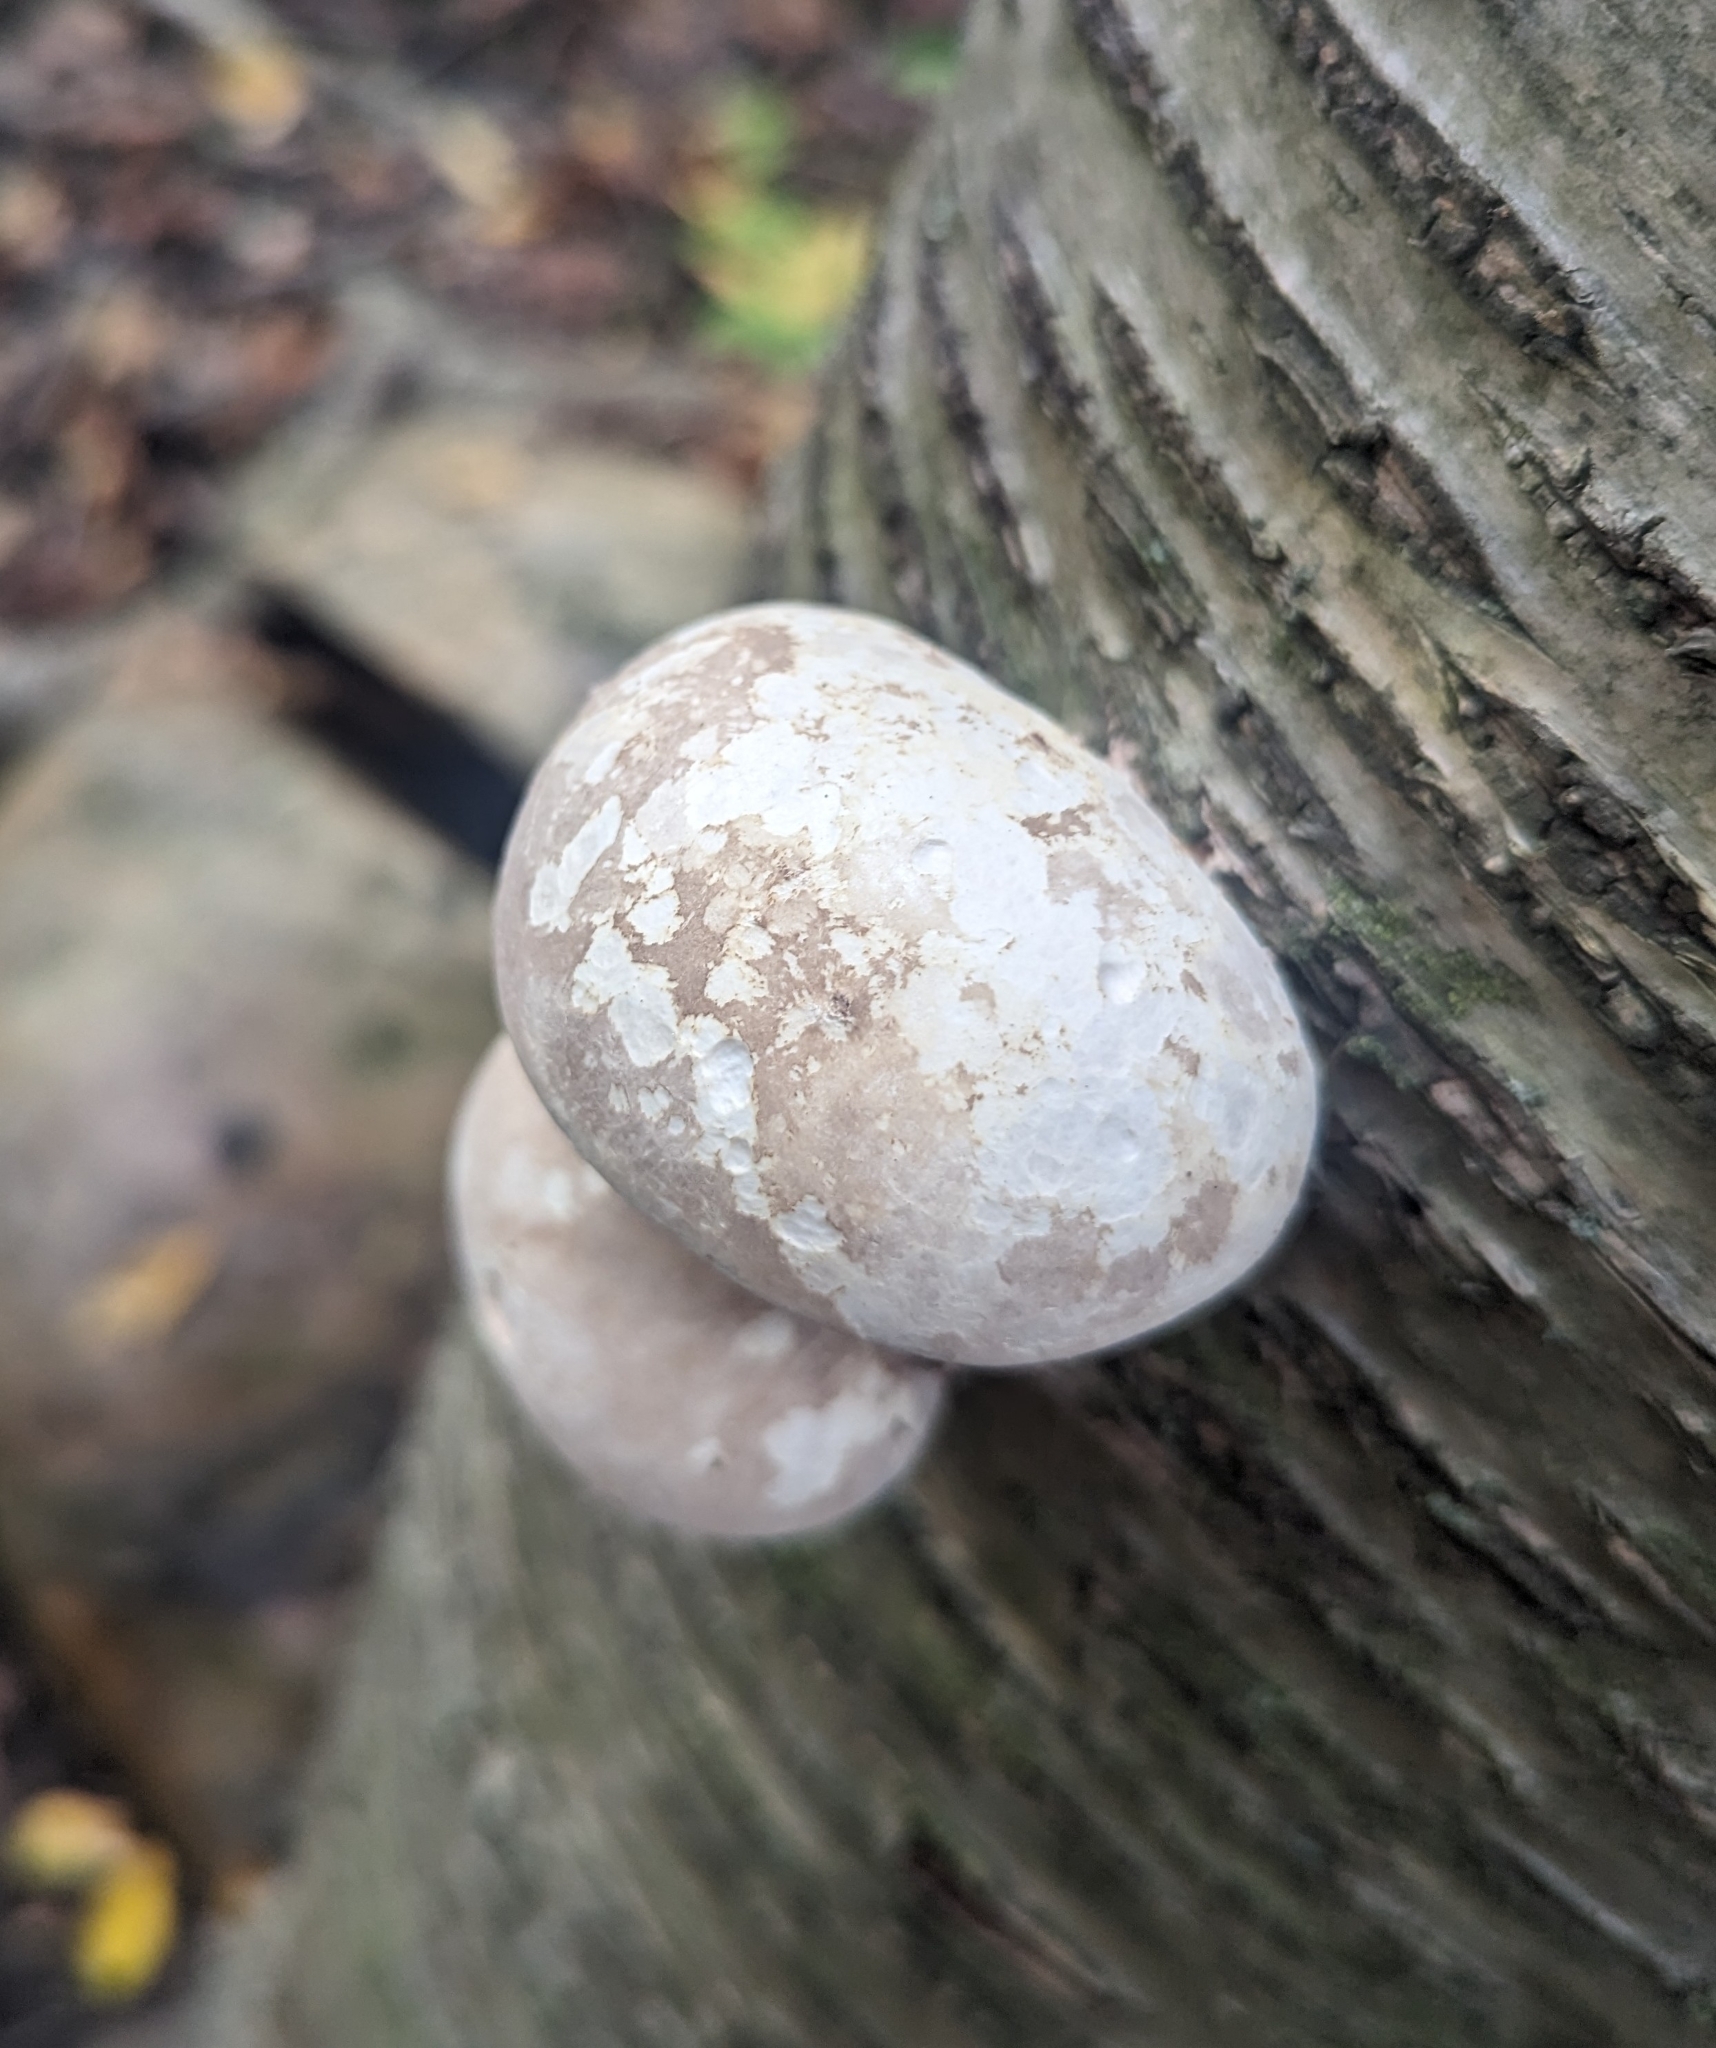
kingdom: Fungi
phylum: Basidiomycota
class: Agaricomycetes
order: Polyporales
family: Fomitopsidaceae
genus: Fomitopsis
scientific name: Fomitopsis betulina
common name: Birch polypore
